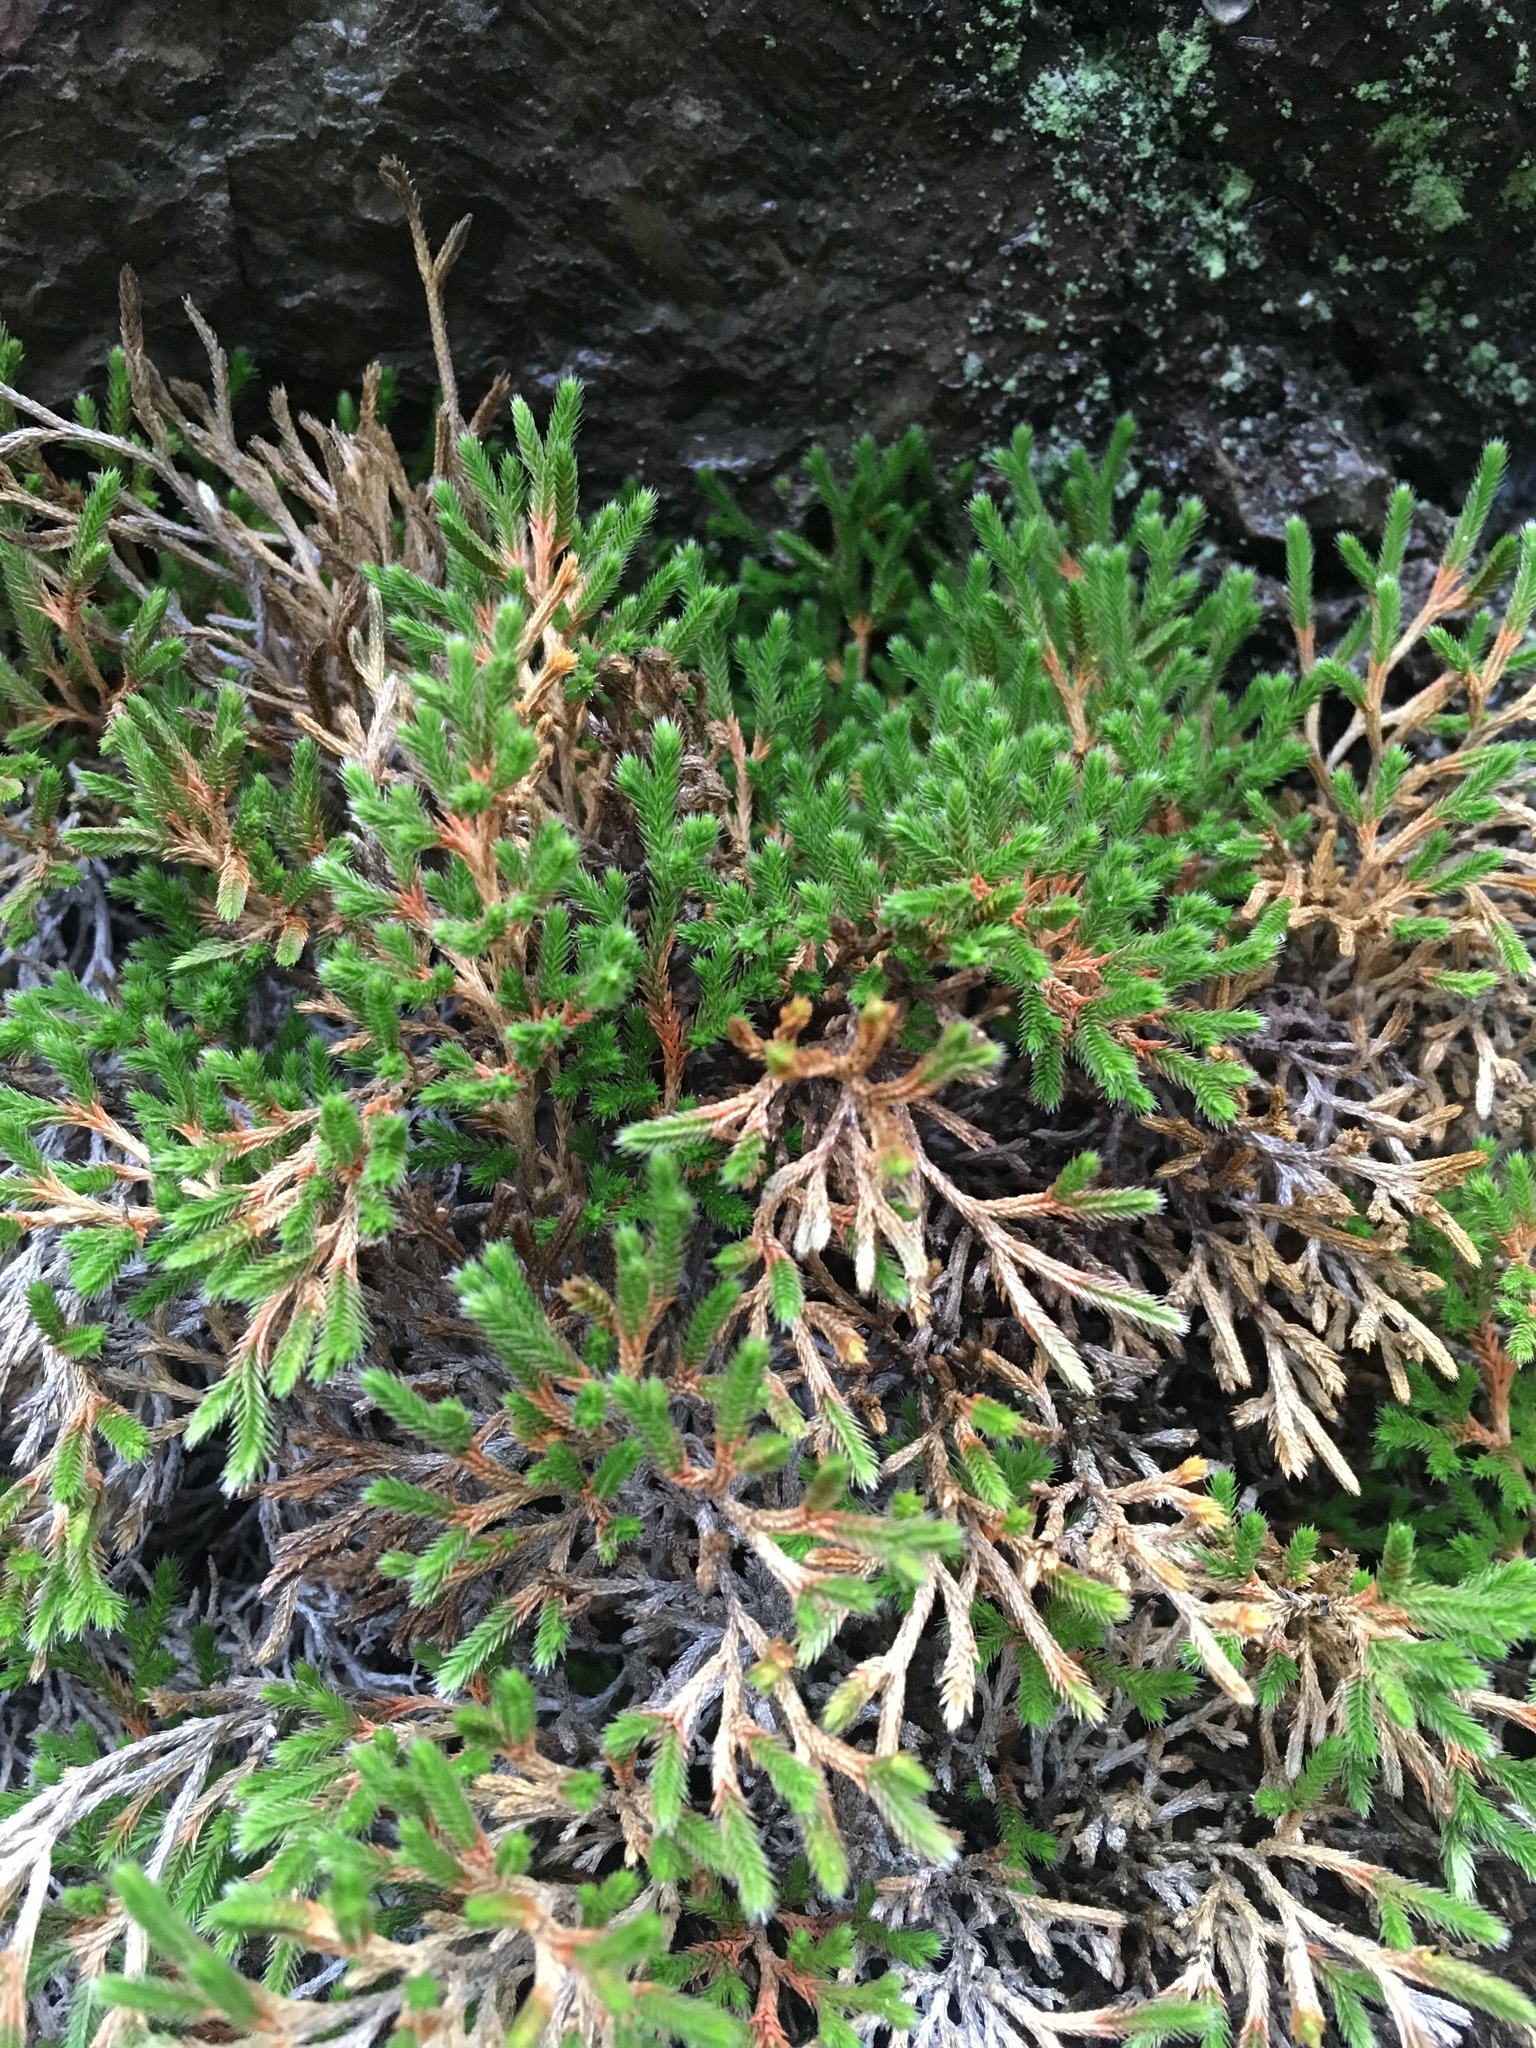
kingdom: Plantae
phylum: Tracheophyta
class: Lycopodiopsida
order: Selaginellales
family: Selaginellaceae
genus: Selaginella
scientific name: Selaginella bigelovii
